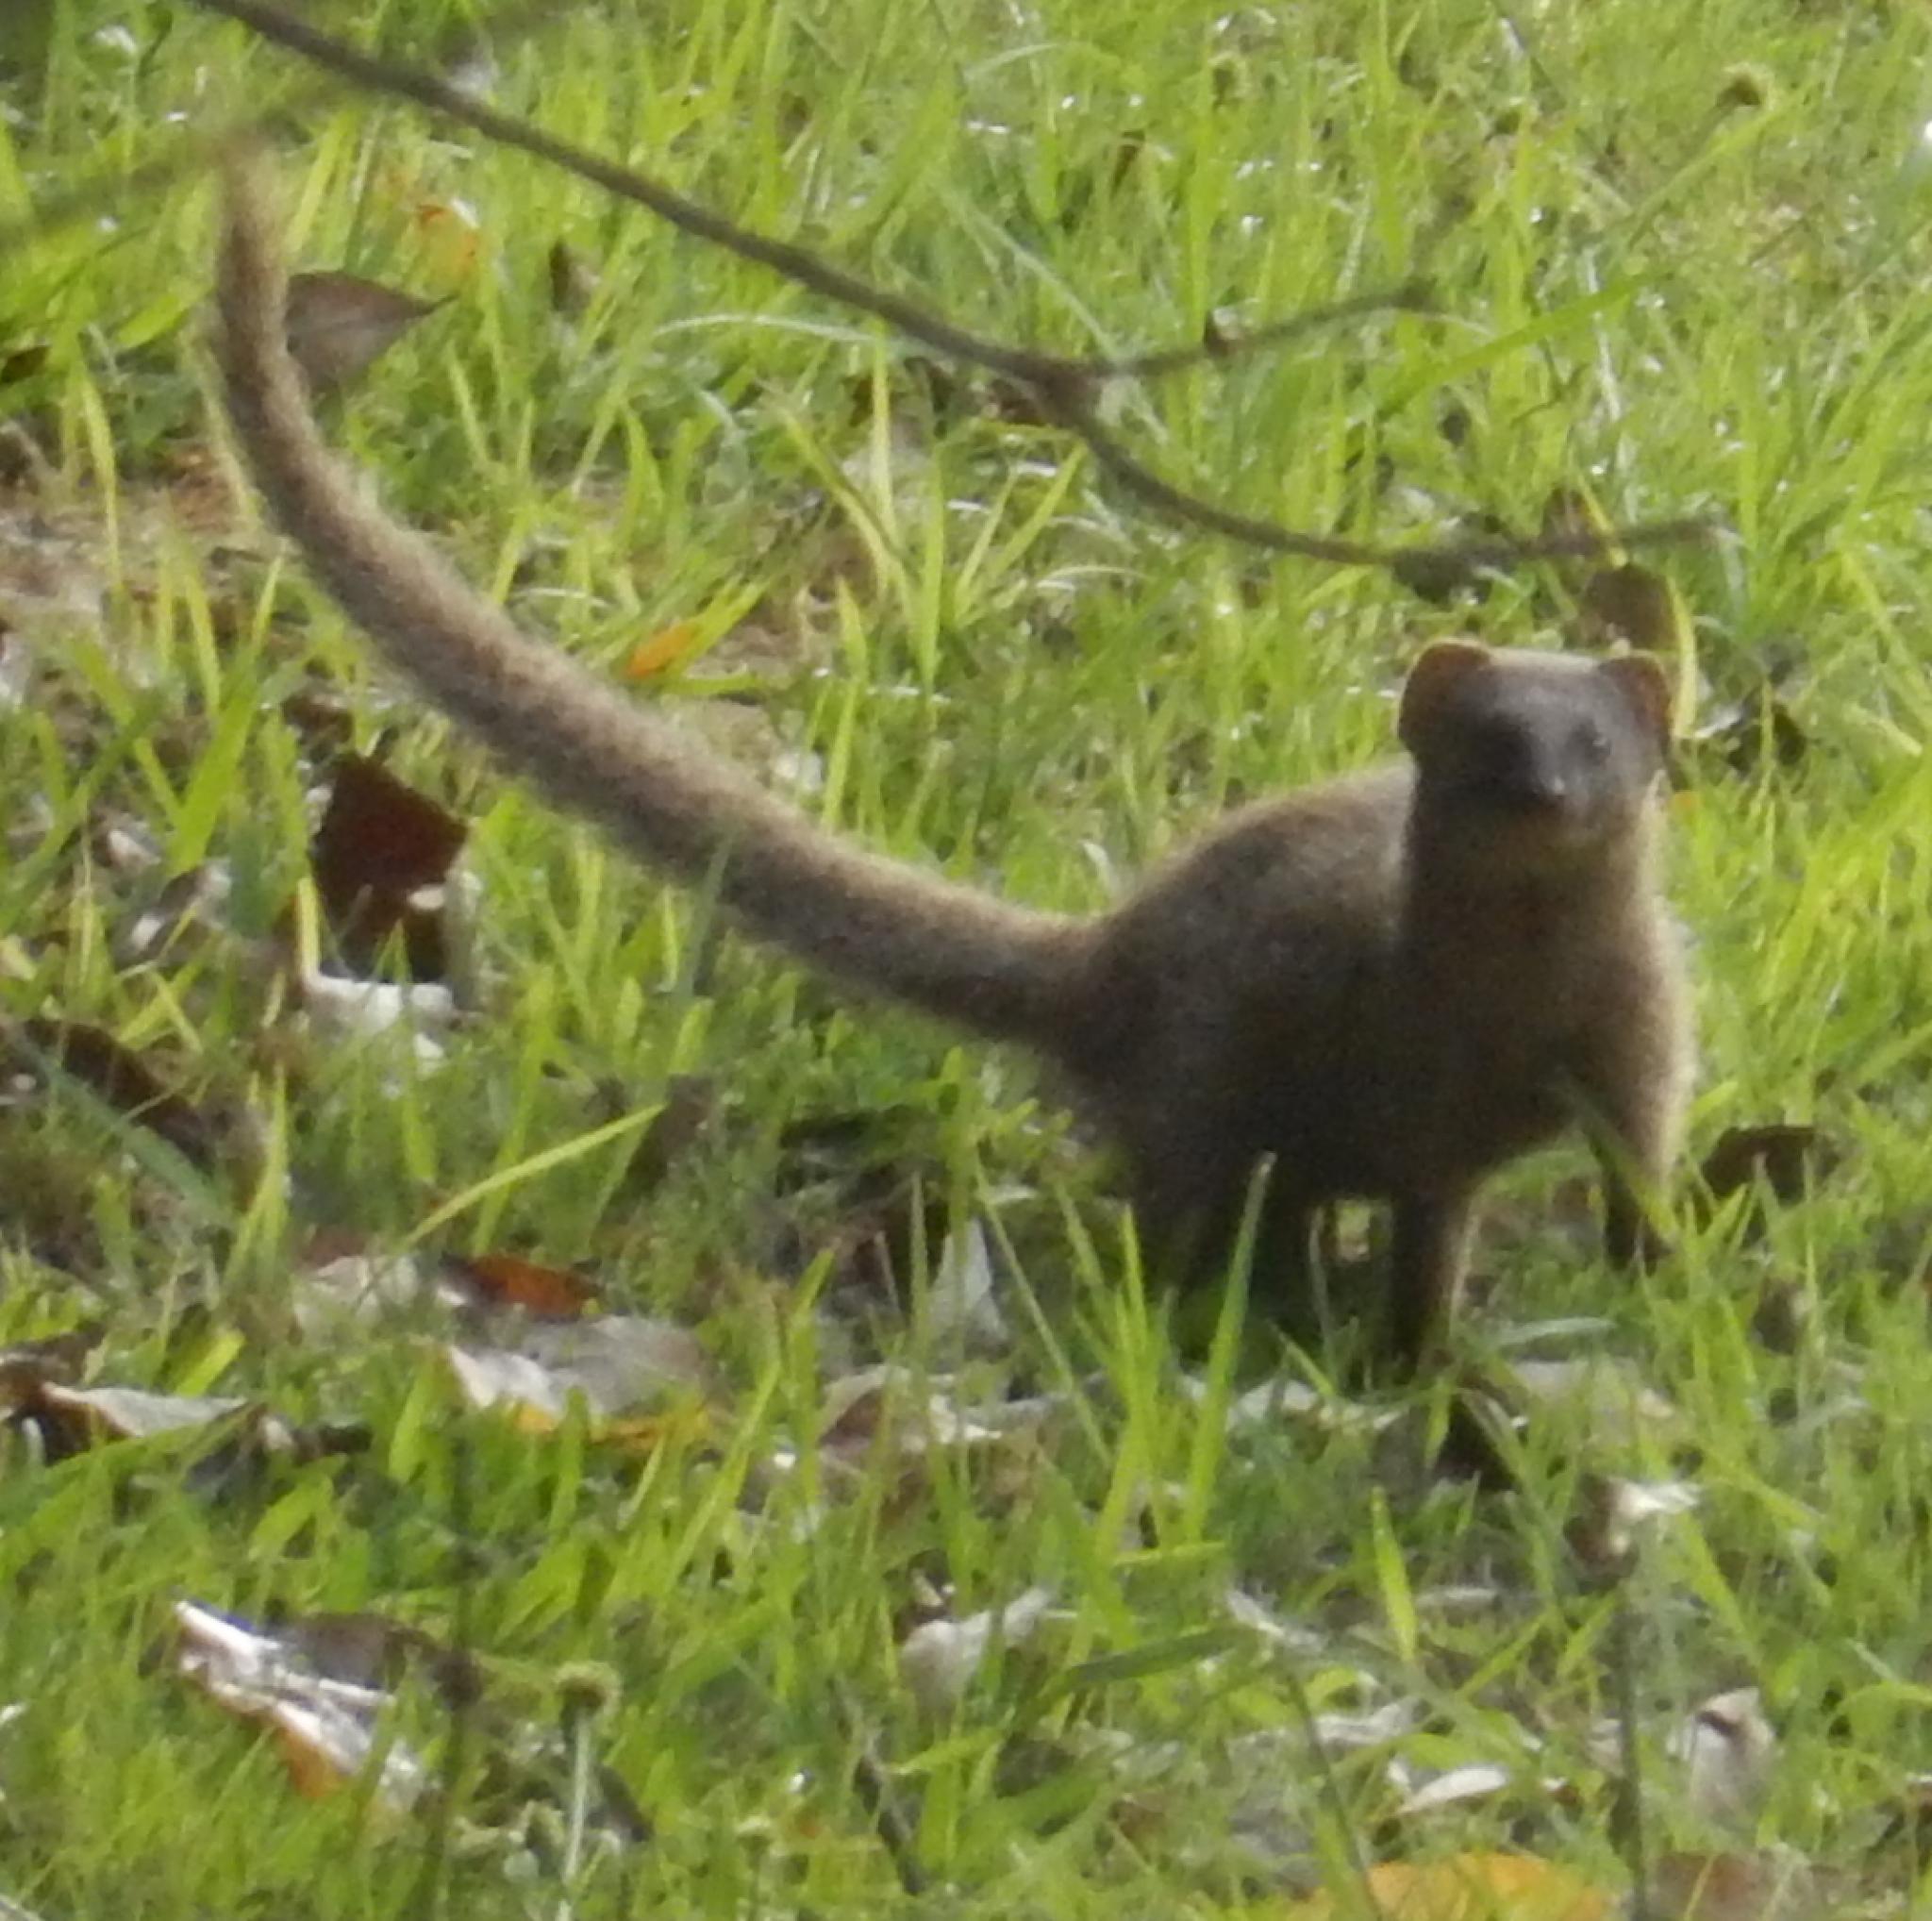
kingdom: Animalia
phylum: Chordata
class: Mammalia
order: Carnivora
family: Herpestidae
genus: Galerella
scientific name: Galerella pulverulenta
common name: Cape gray mongoose
